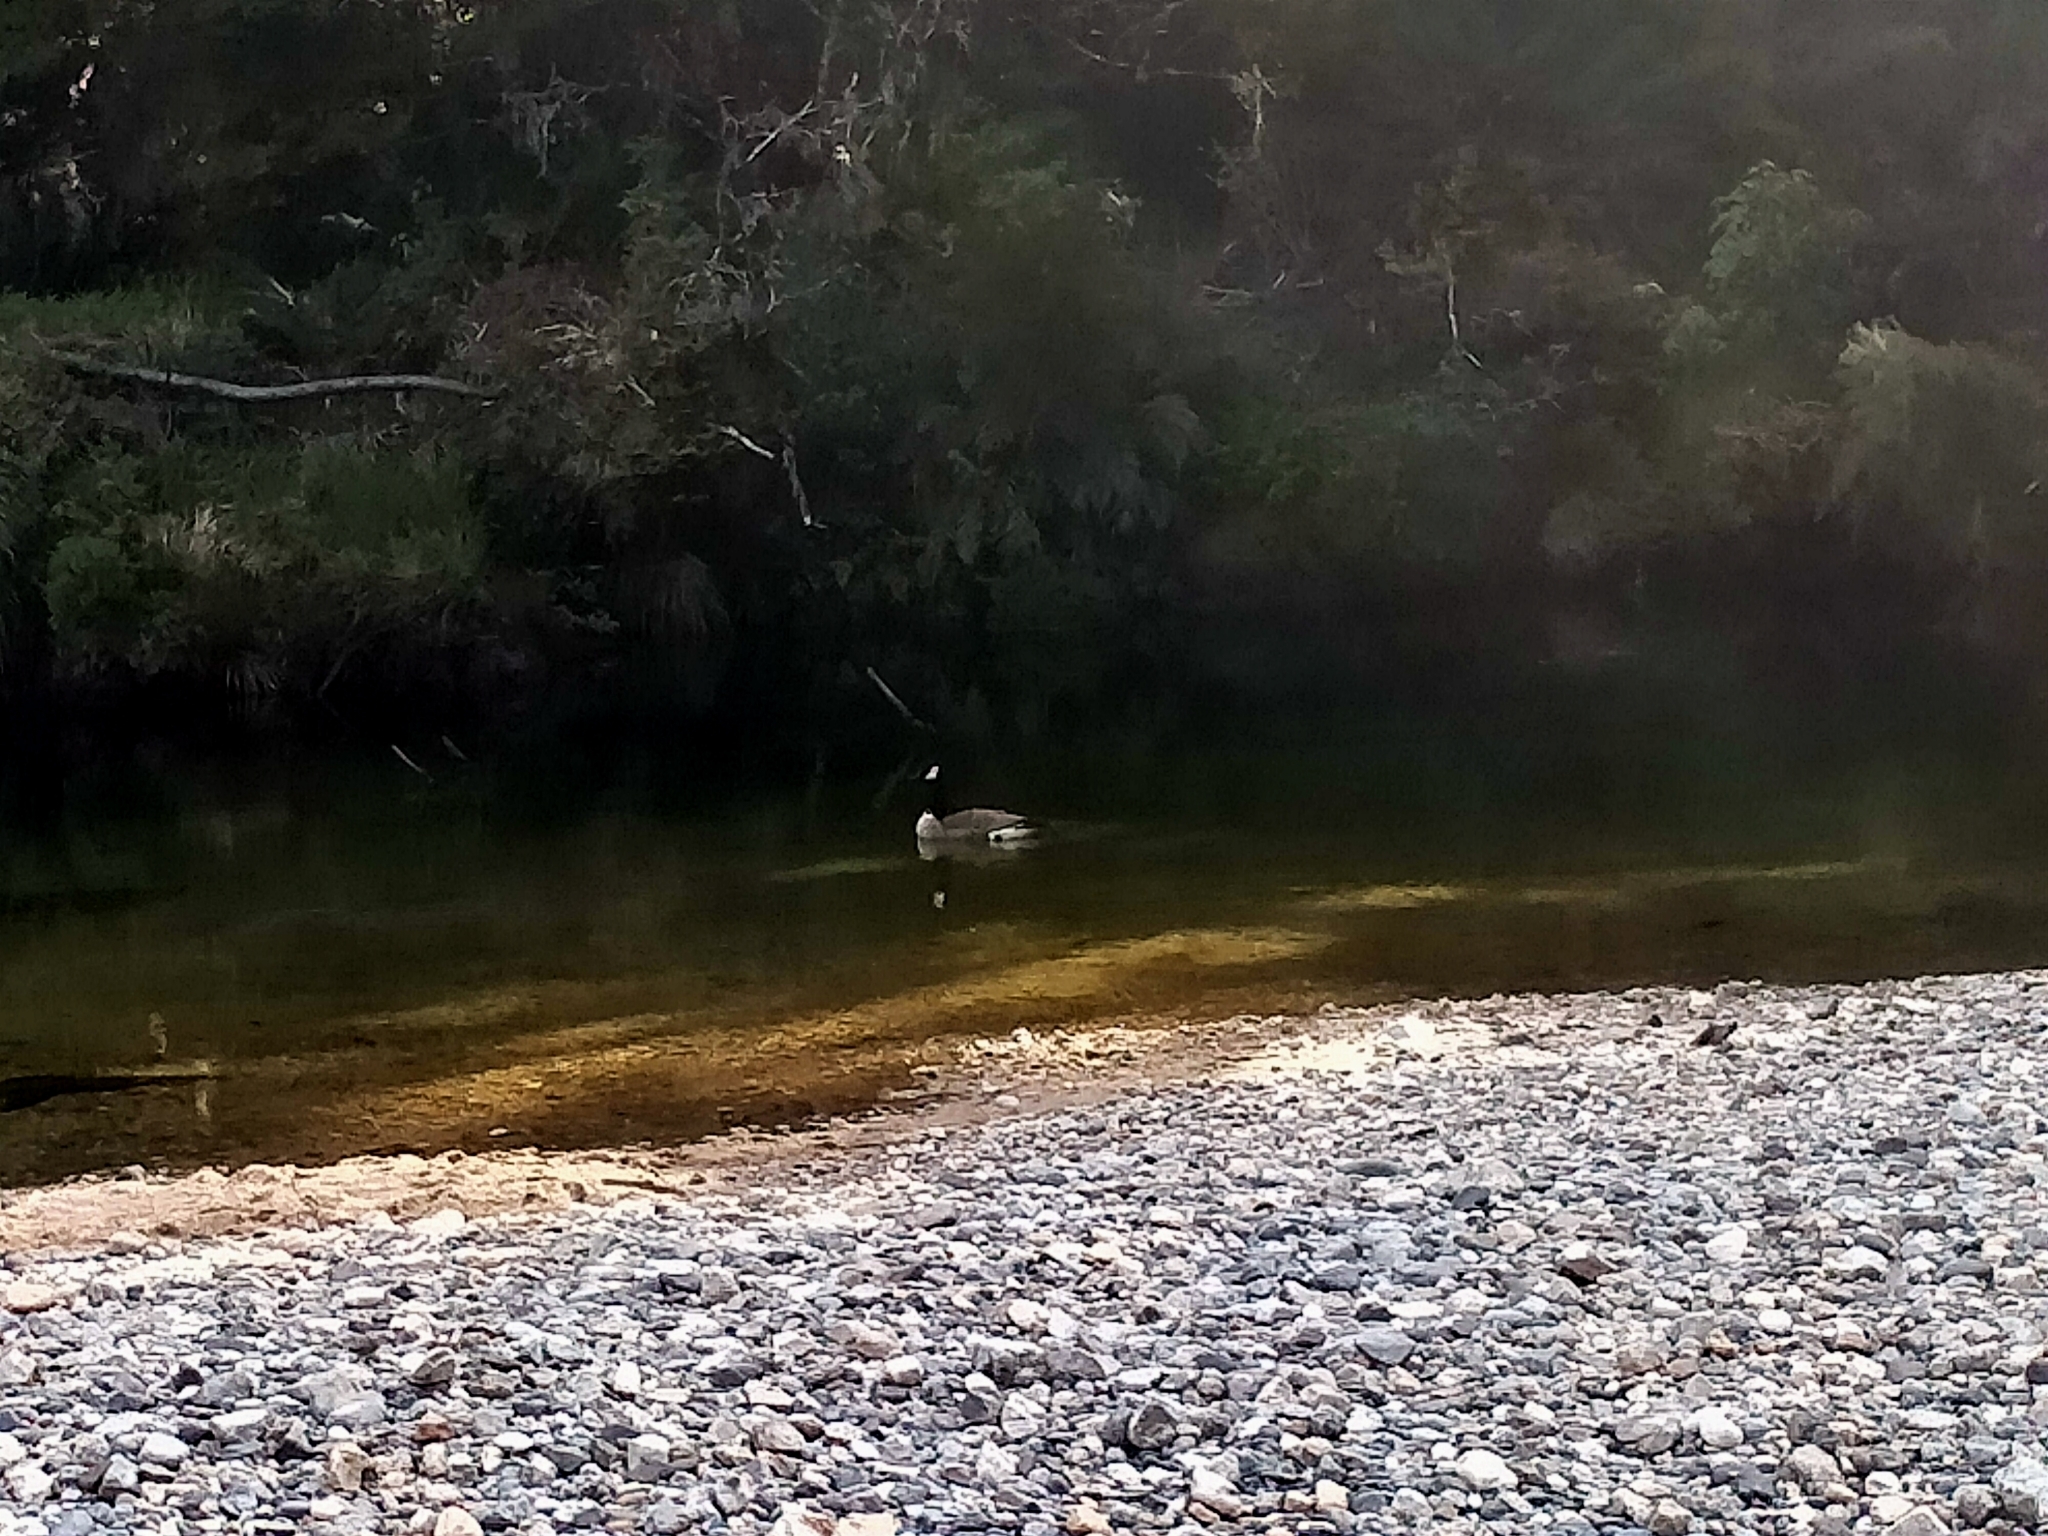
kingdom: Animalia
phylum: Chordata
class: Aves
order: Anseriformes
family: Anatidae
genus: Branta
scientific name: Branta canadensis
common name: Canada goose
